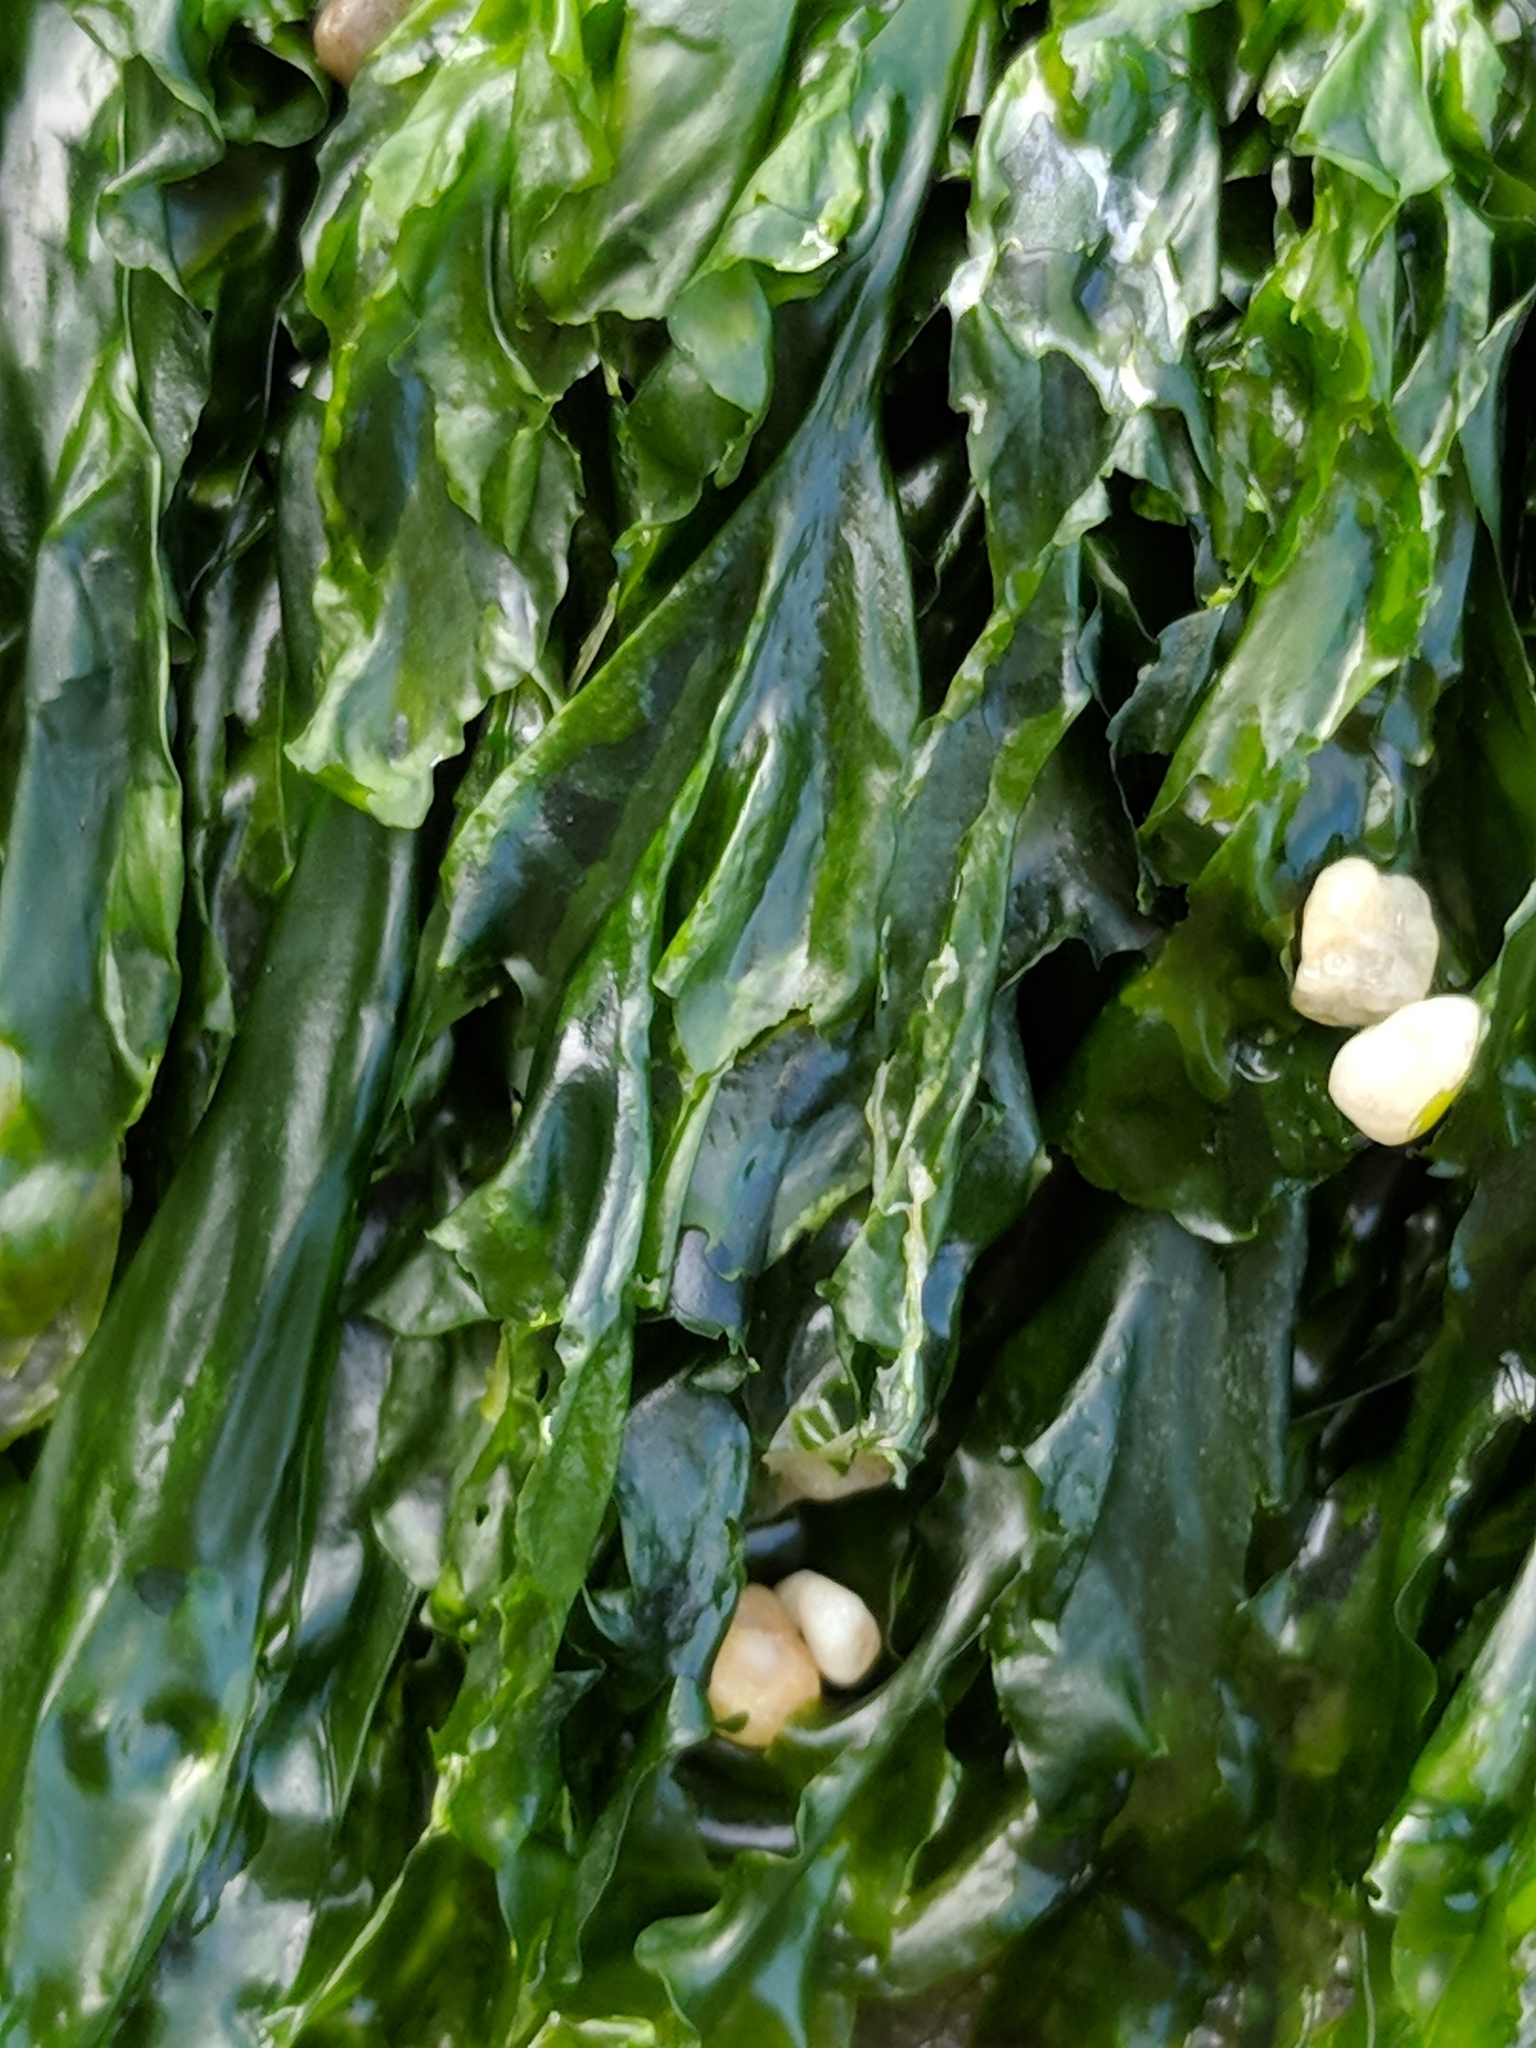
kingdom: Plantae
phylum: Chlorophyta
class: Ulvophyceae
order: Ulvales
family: Ulvaceae
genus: Ulva
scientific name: Ulva
